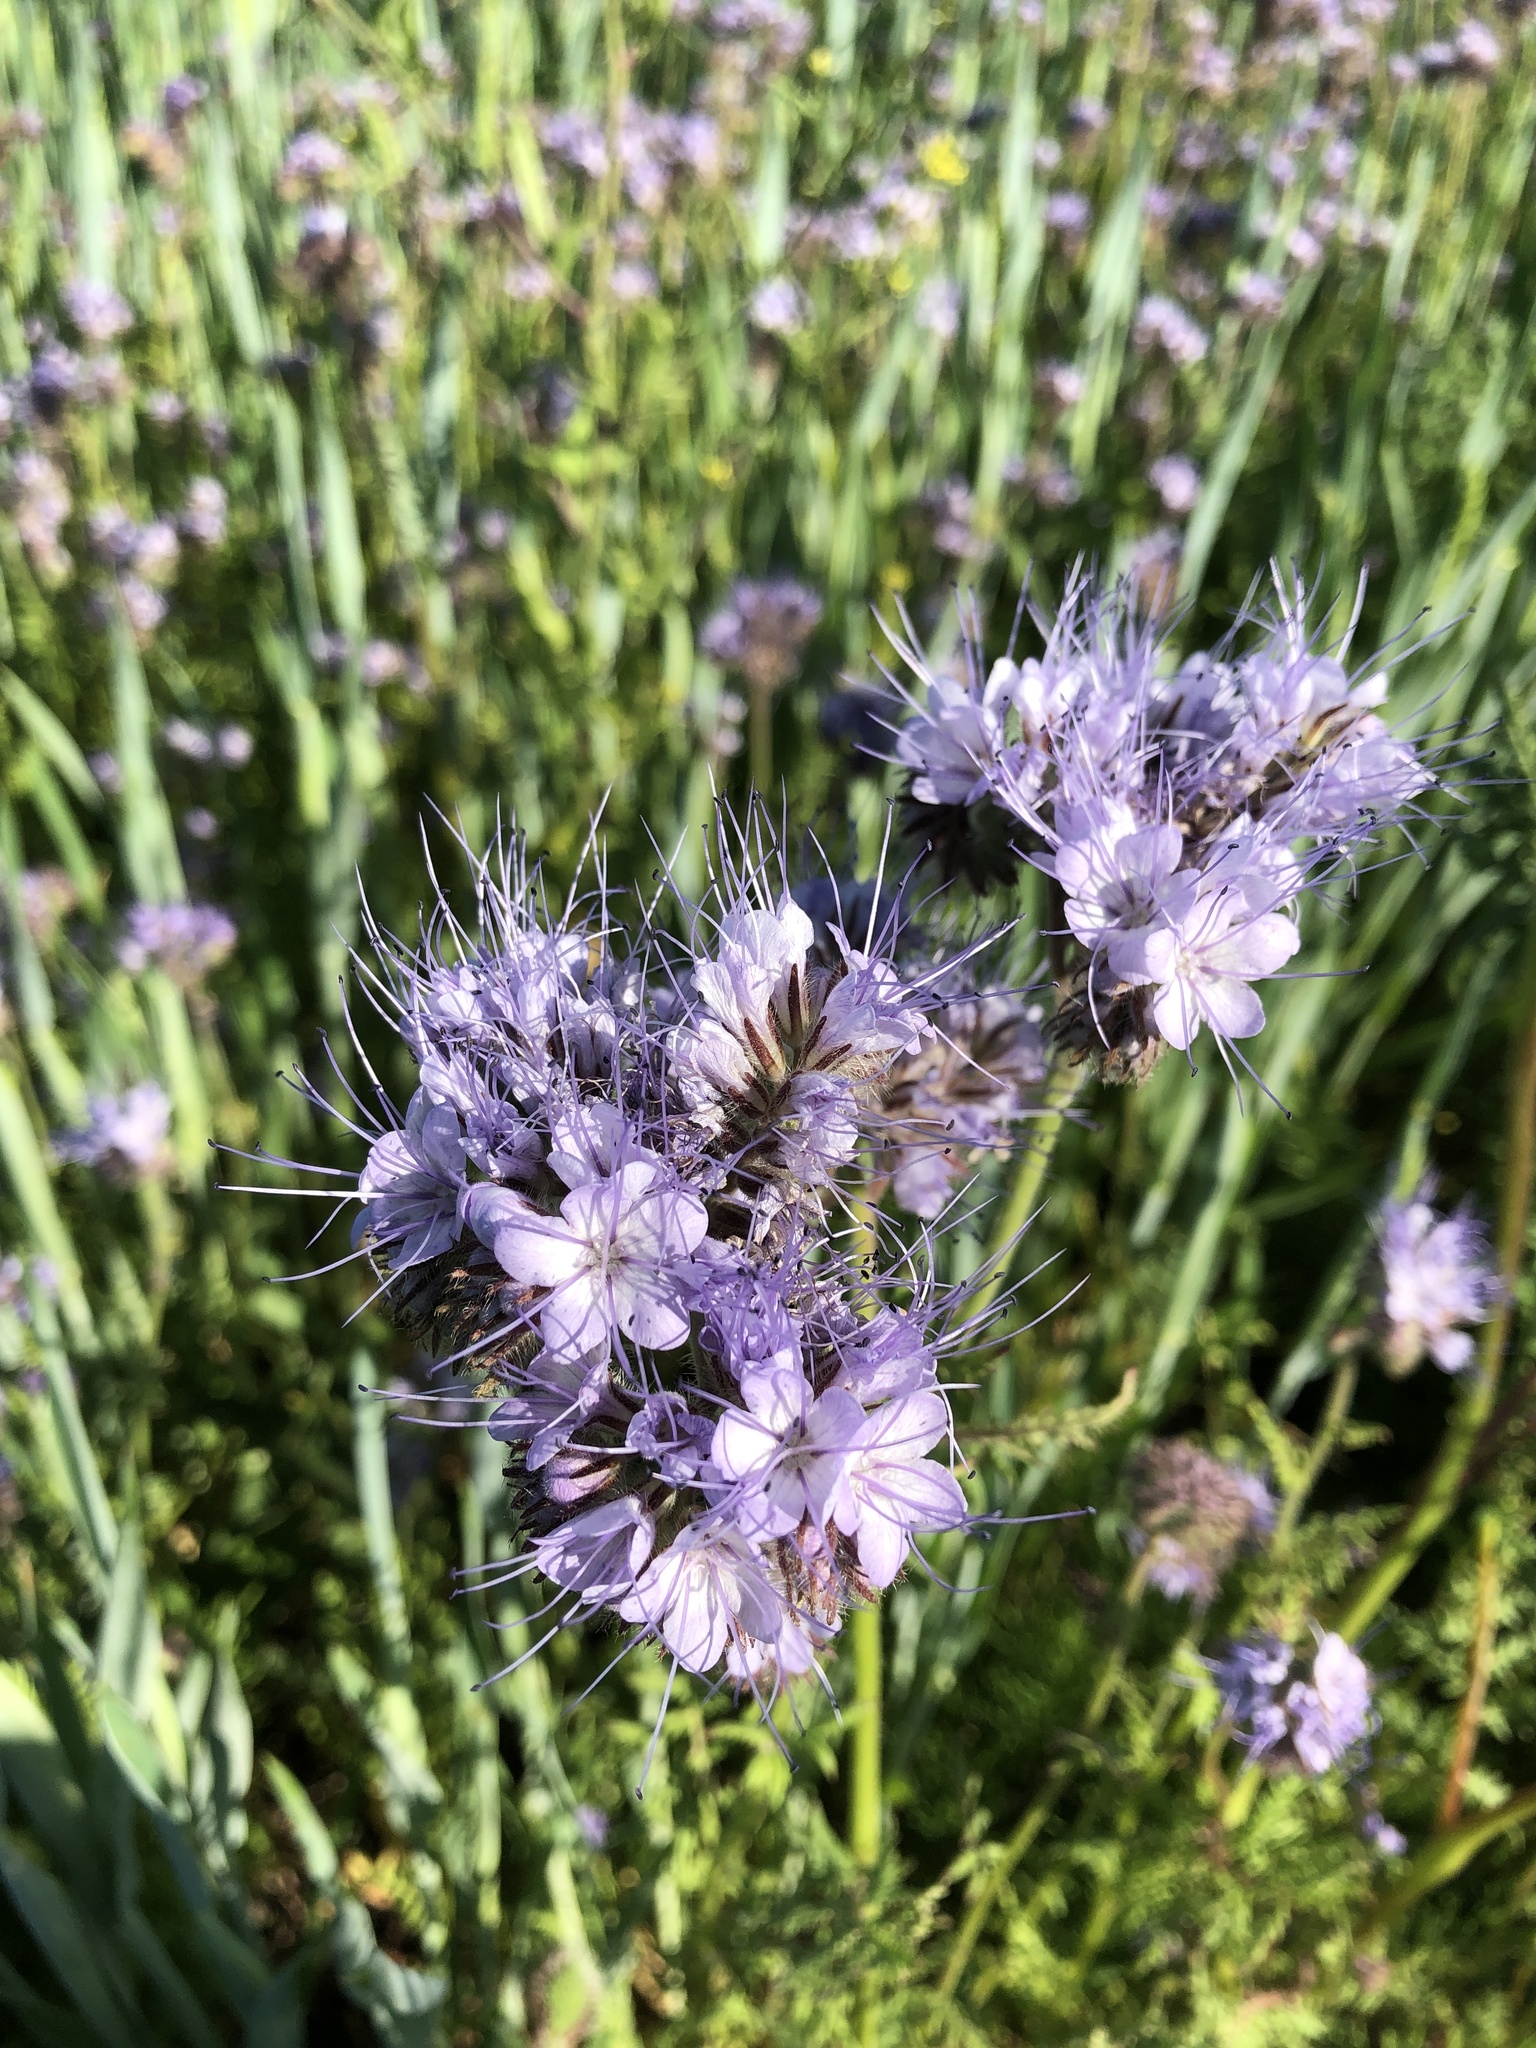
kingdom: Plantae
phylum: Tracheophyta
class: Magnoliopsida
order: Boraginales
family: Hydrophyllaceae
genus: Phacelia
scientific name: Phacelia tanacetifolia
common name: Phacelia
